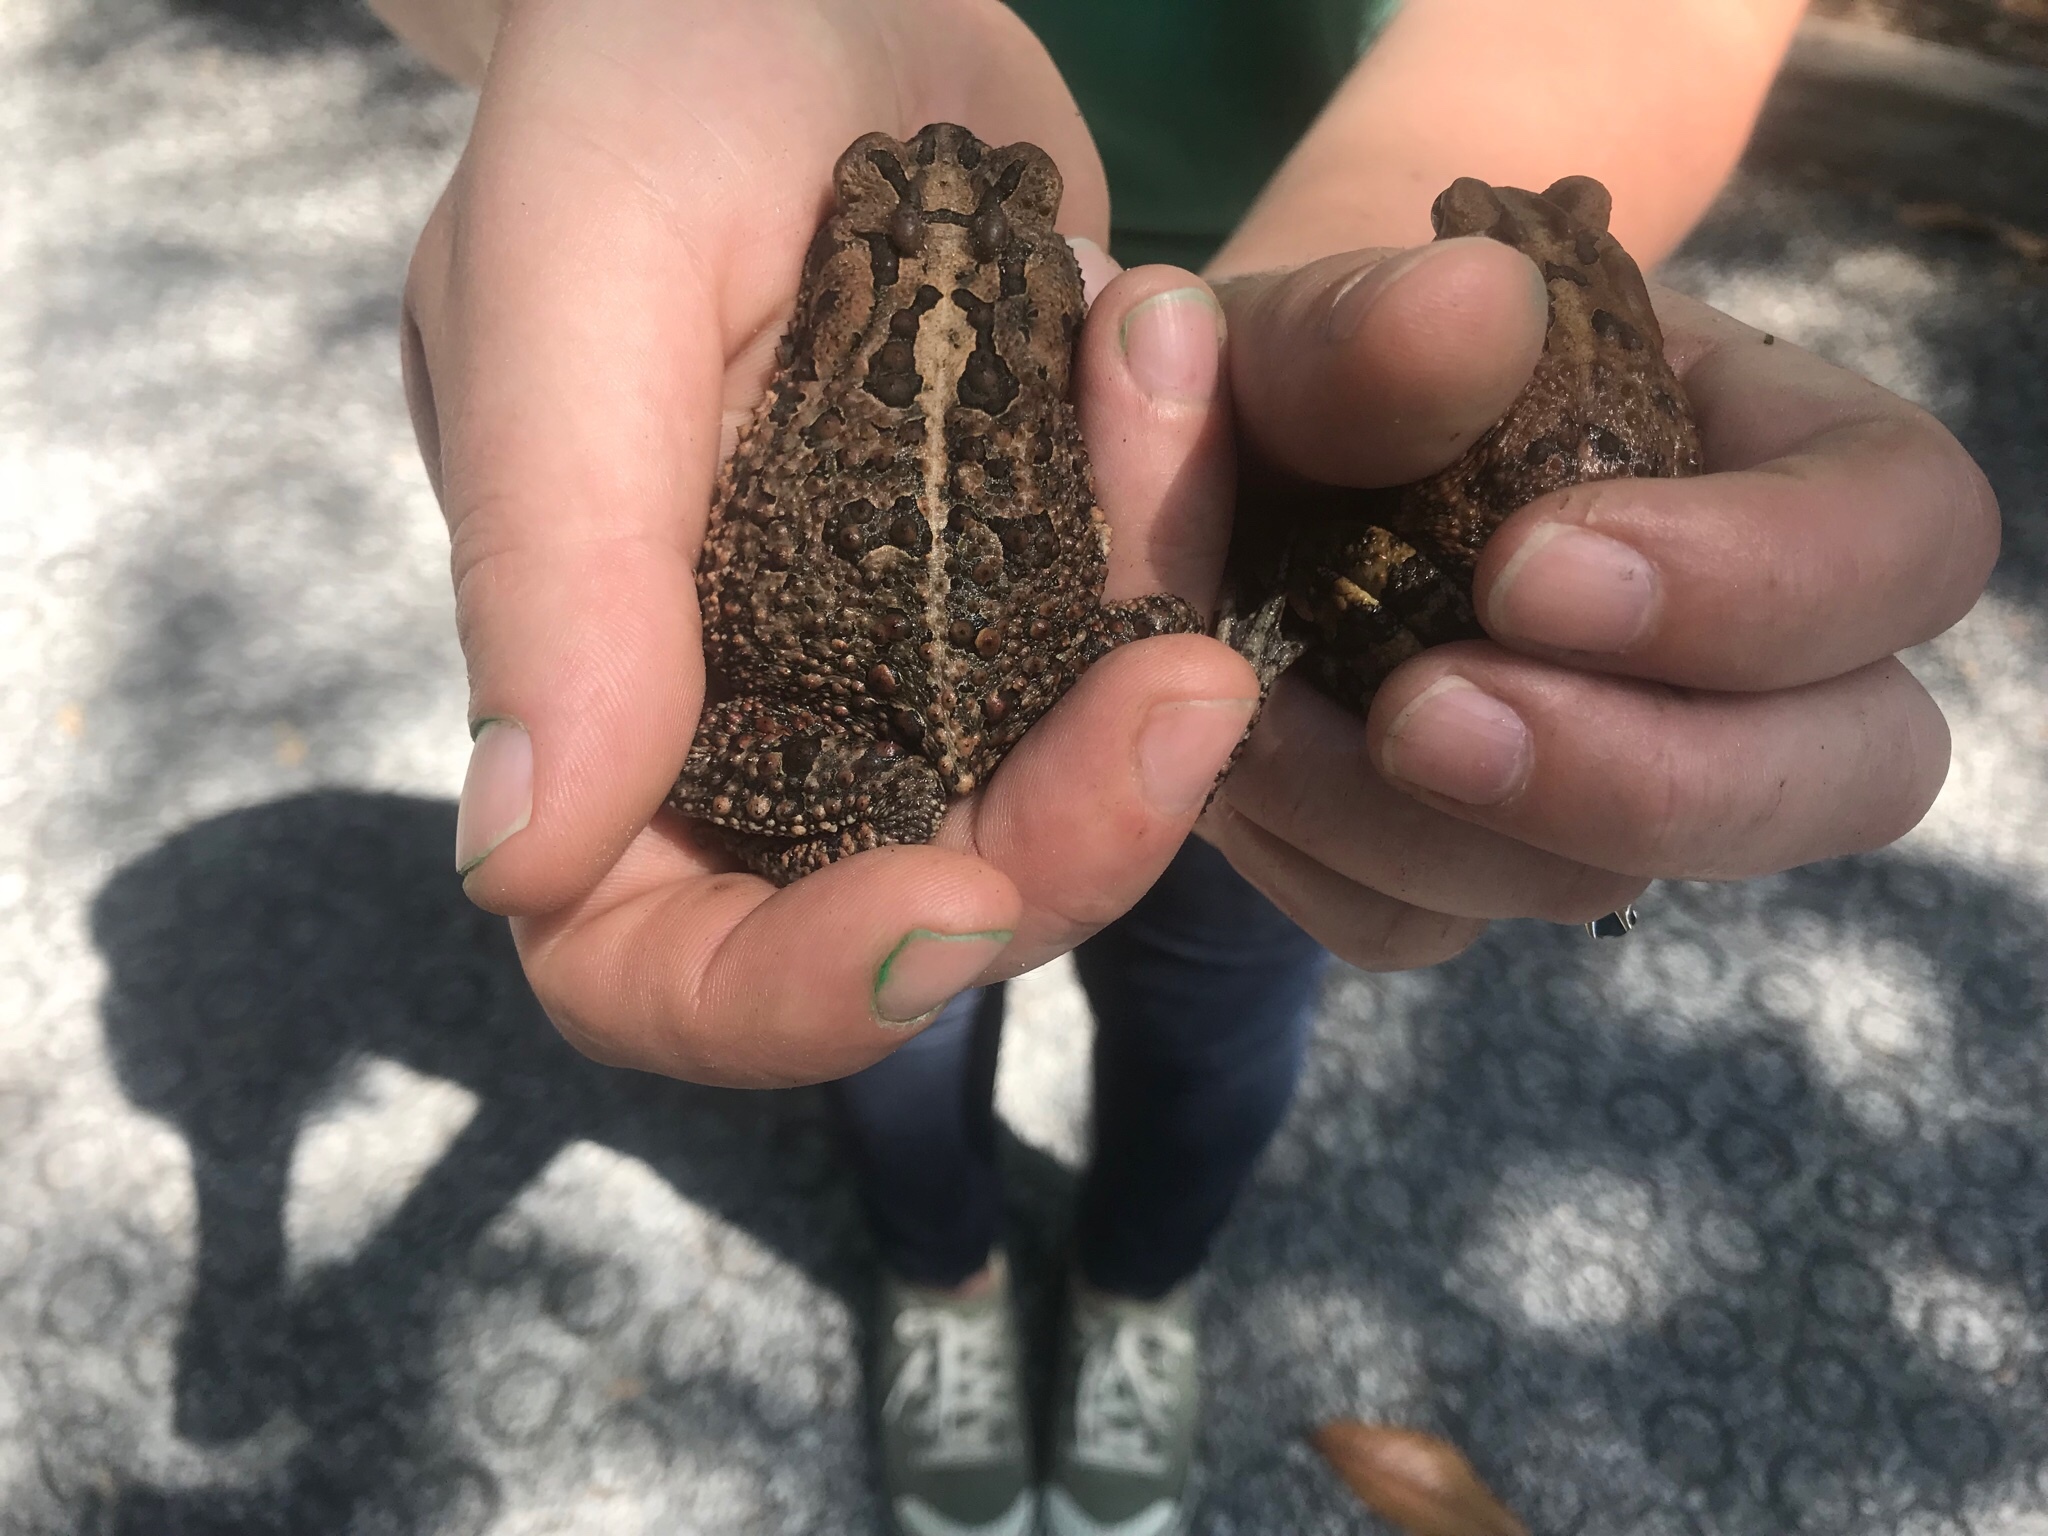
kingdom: Animalia
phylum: Chordata
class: Amphibia
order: Anura
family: Bufonidae
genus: Anaxyrus
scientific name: Anaxyrus terrestris
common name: Southern toad
